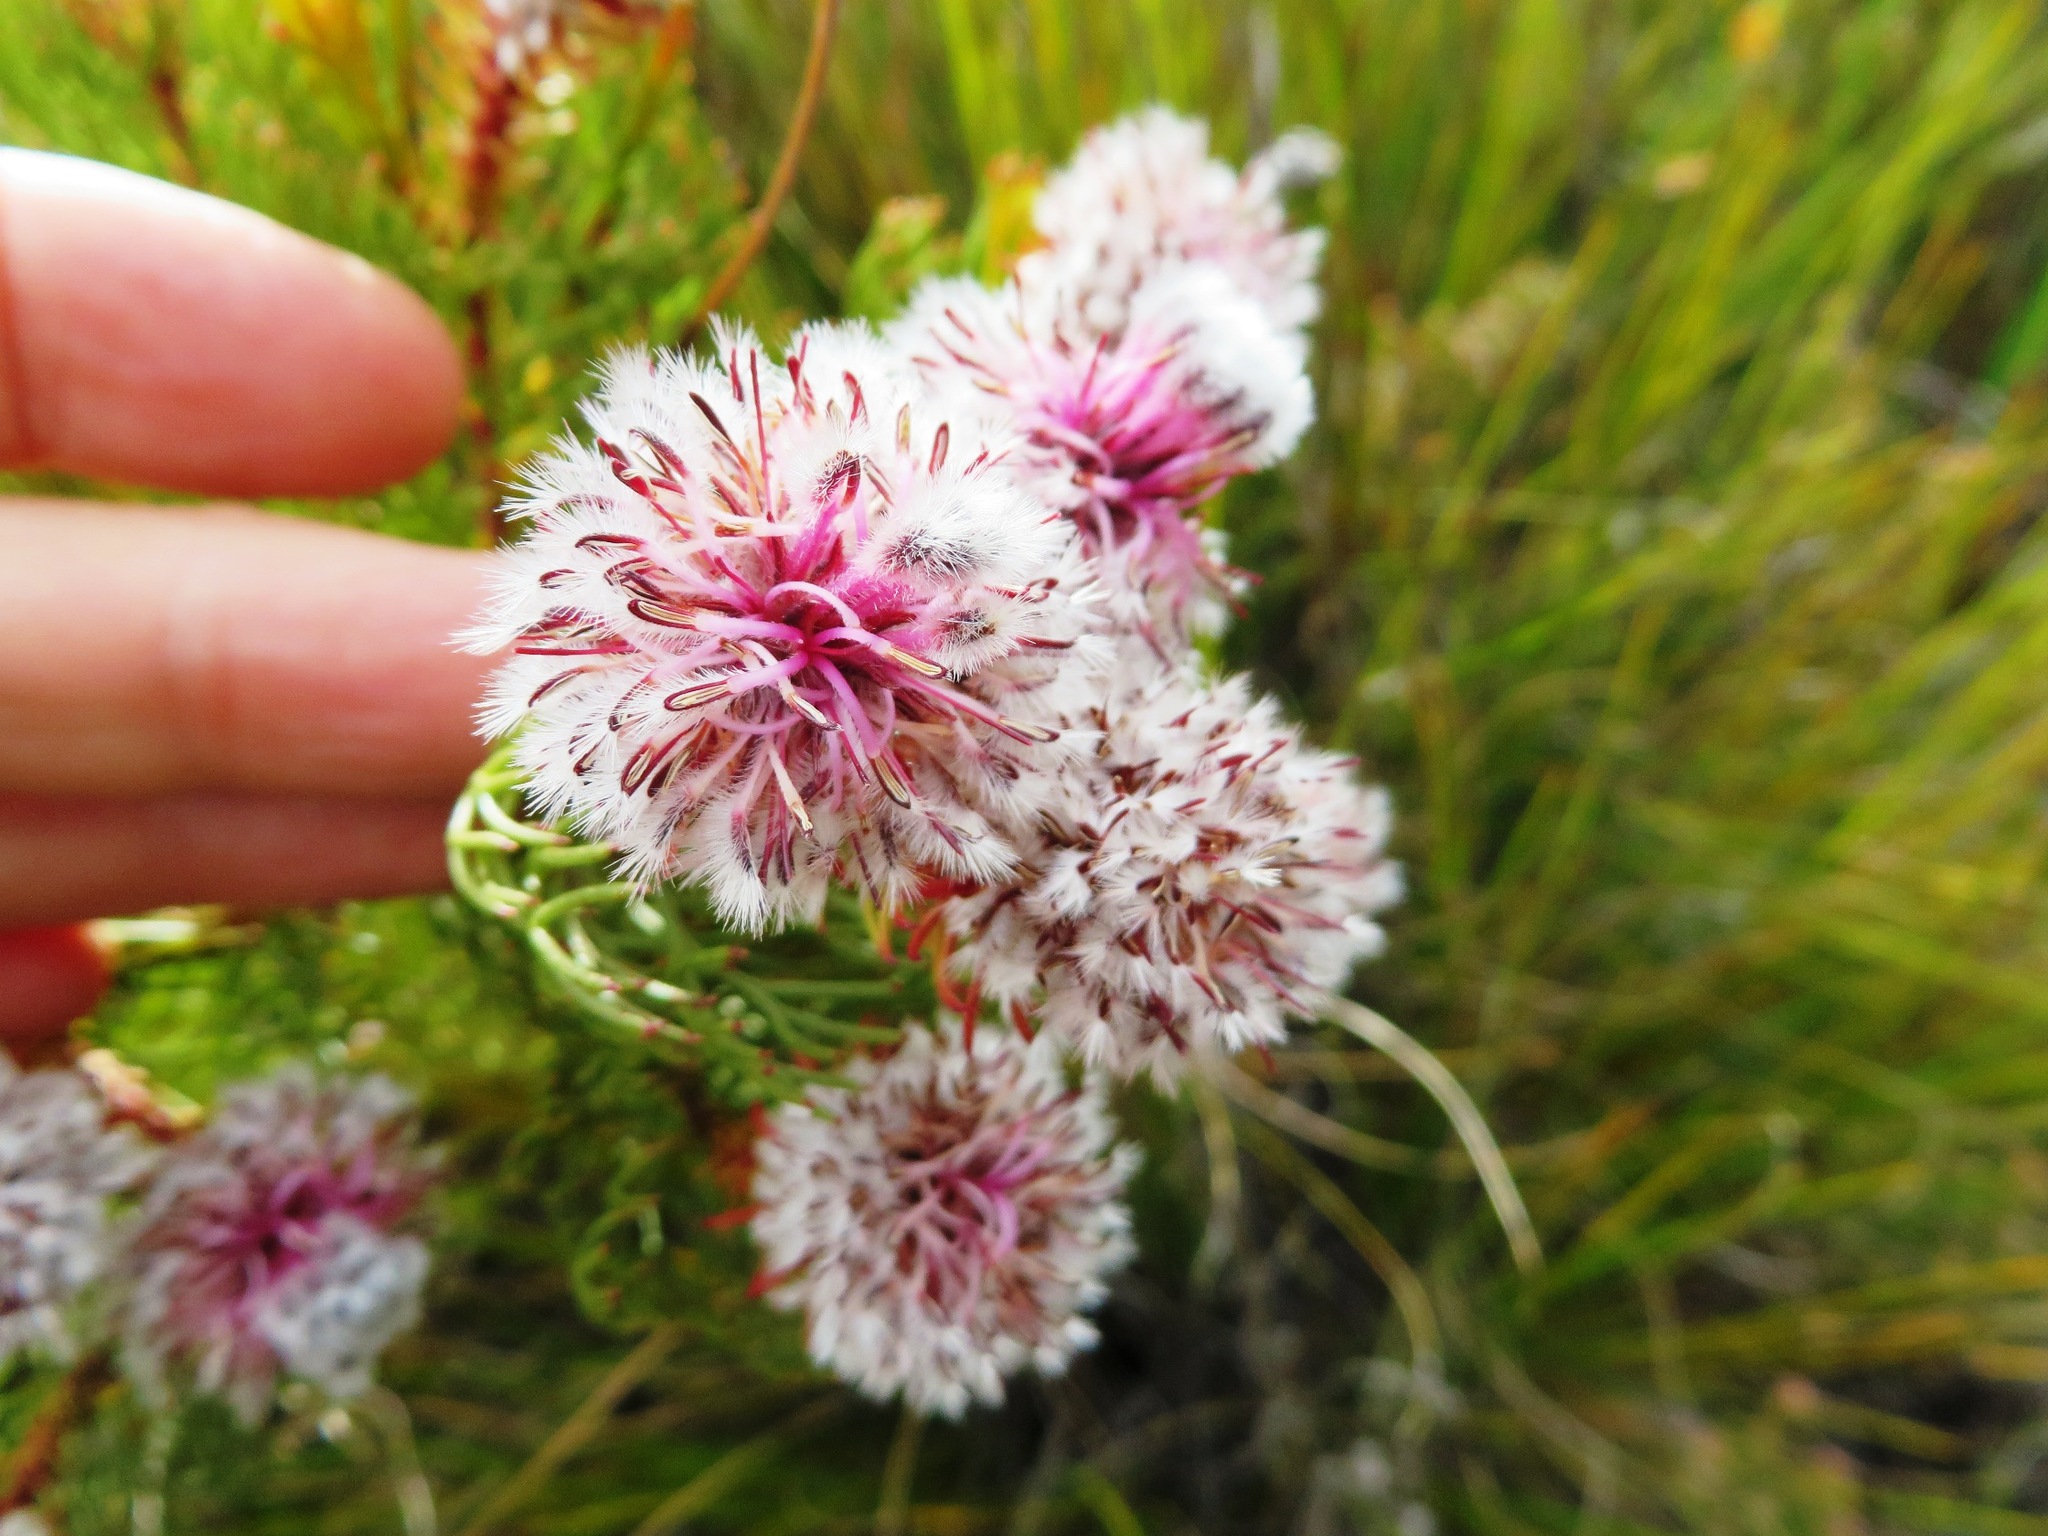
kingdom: Plantae
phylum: Tracheophyta
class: Magnoliopsida
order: Proteales
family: Proteaceae
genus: Serruria
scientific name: Serruria phylicoides
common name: Bearded spiderhead
